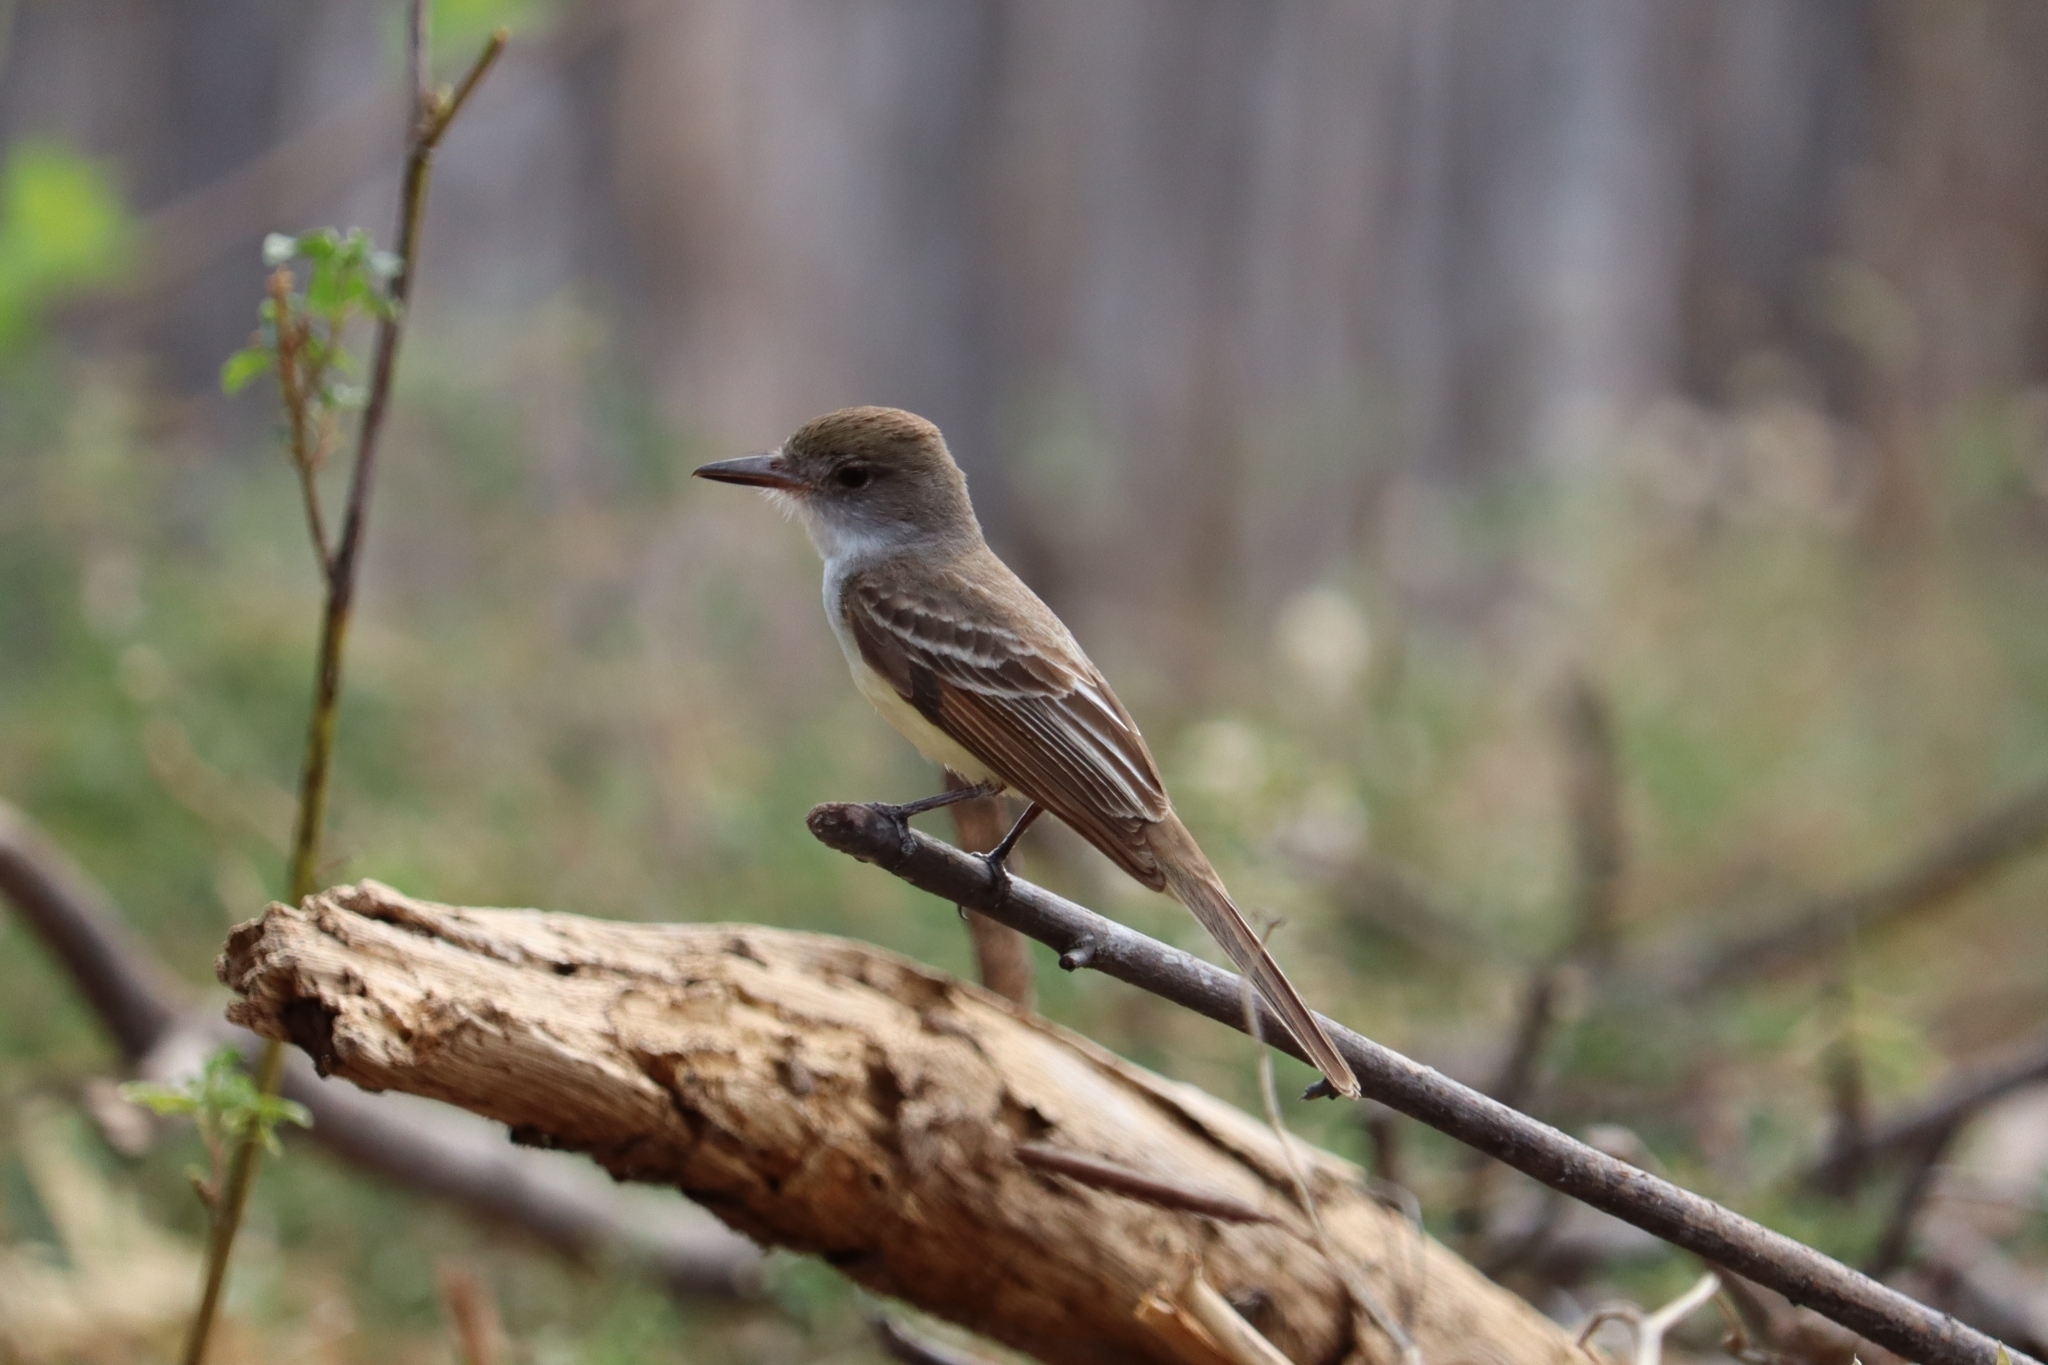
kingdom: Animalia
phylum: Chordata
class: Aves
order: Passeriformes
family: Tyrannidae
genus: Myiarchus
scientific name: Myiarchus tyrannulus
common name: Brown-crested flycatcher
